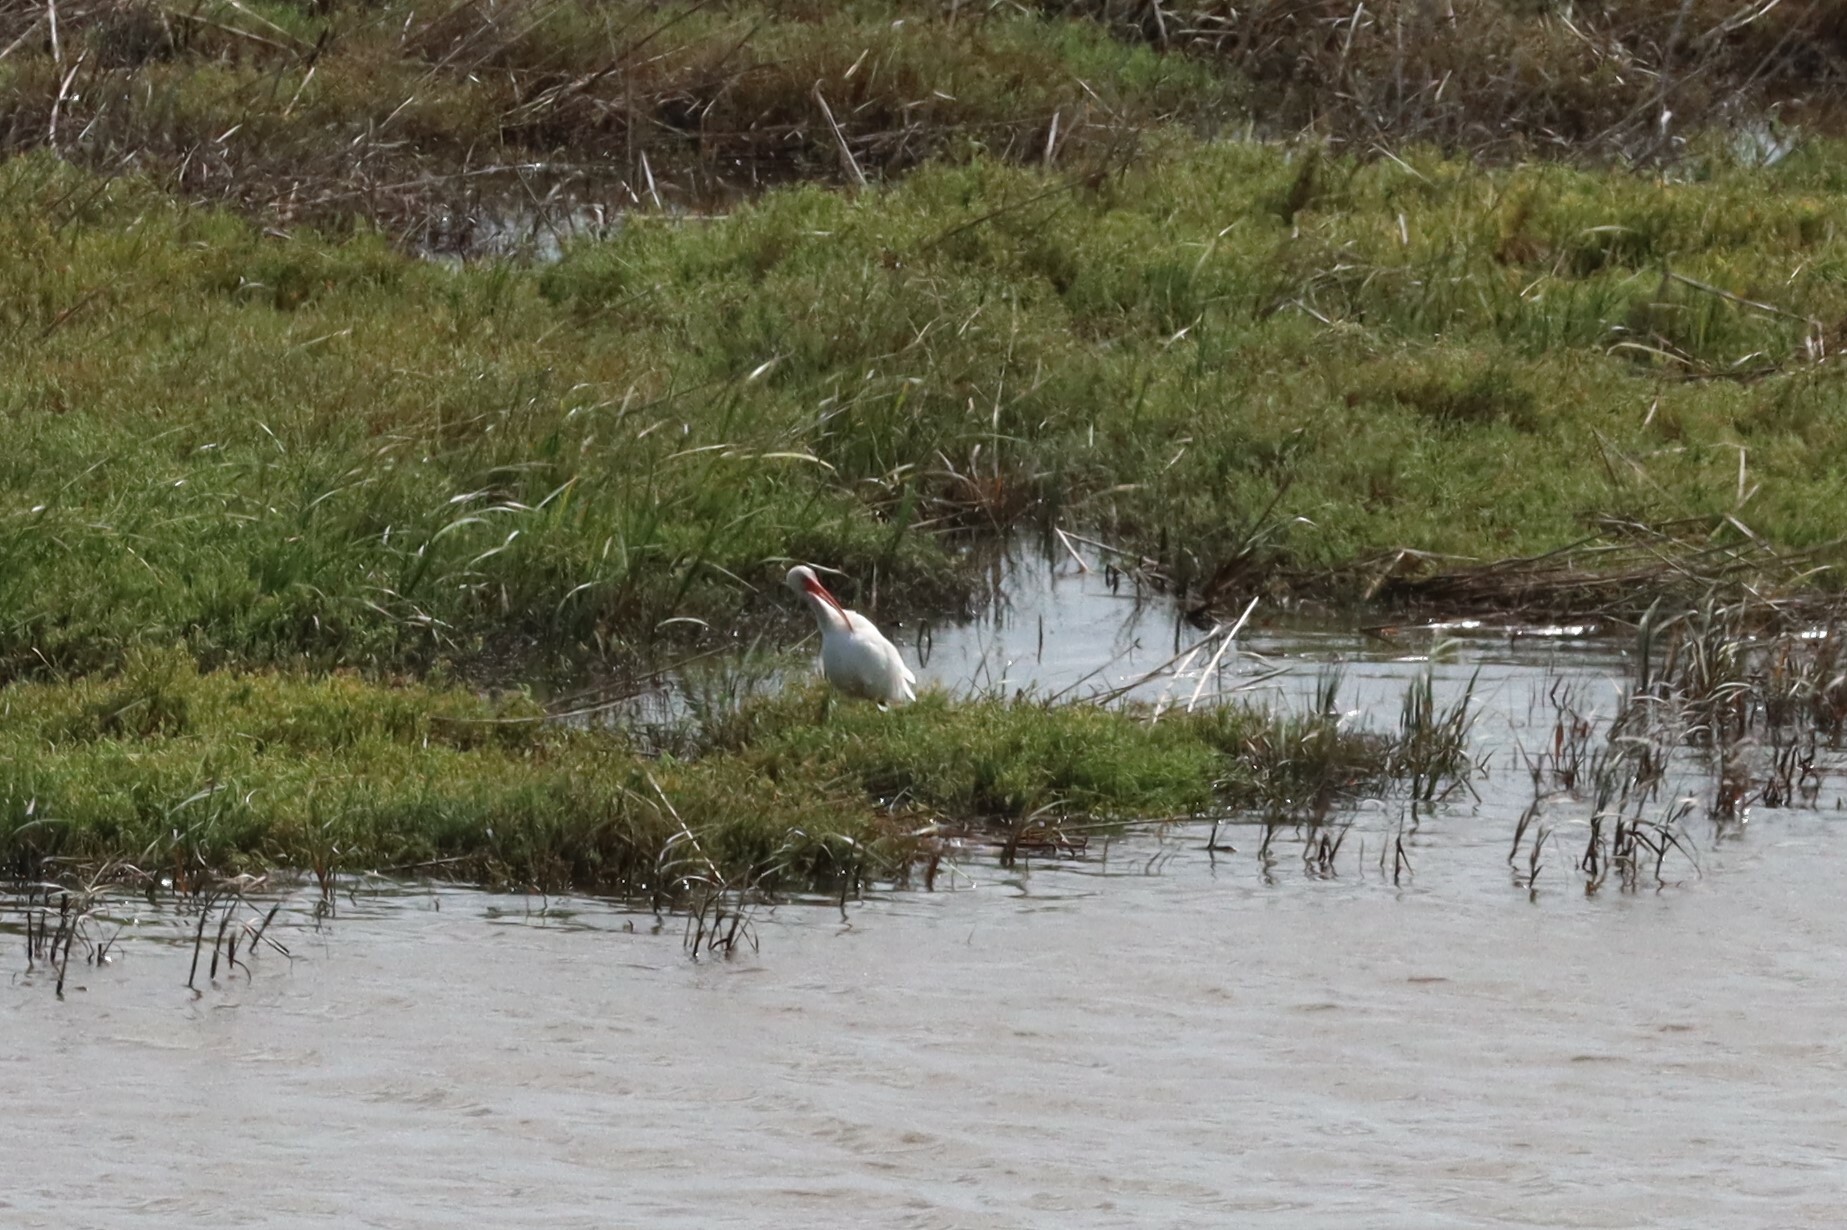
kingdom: Animalia
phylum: Chordata
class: Aves
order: Pelecaniformes
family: Threskiornithidae
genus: Eudocimus
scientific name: Eudocimus albus
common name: White ibis
